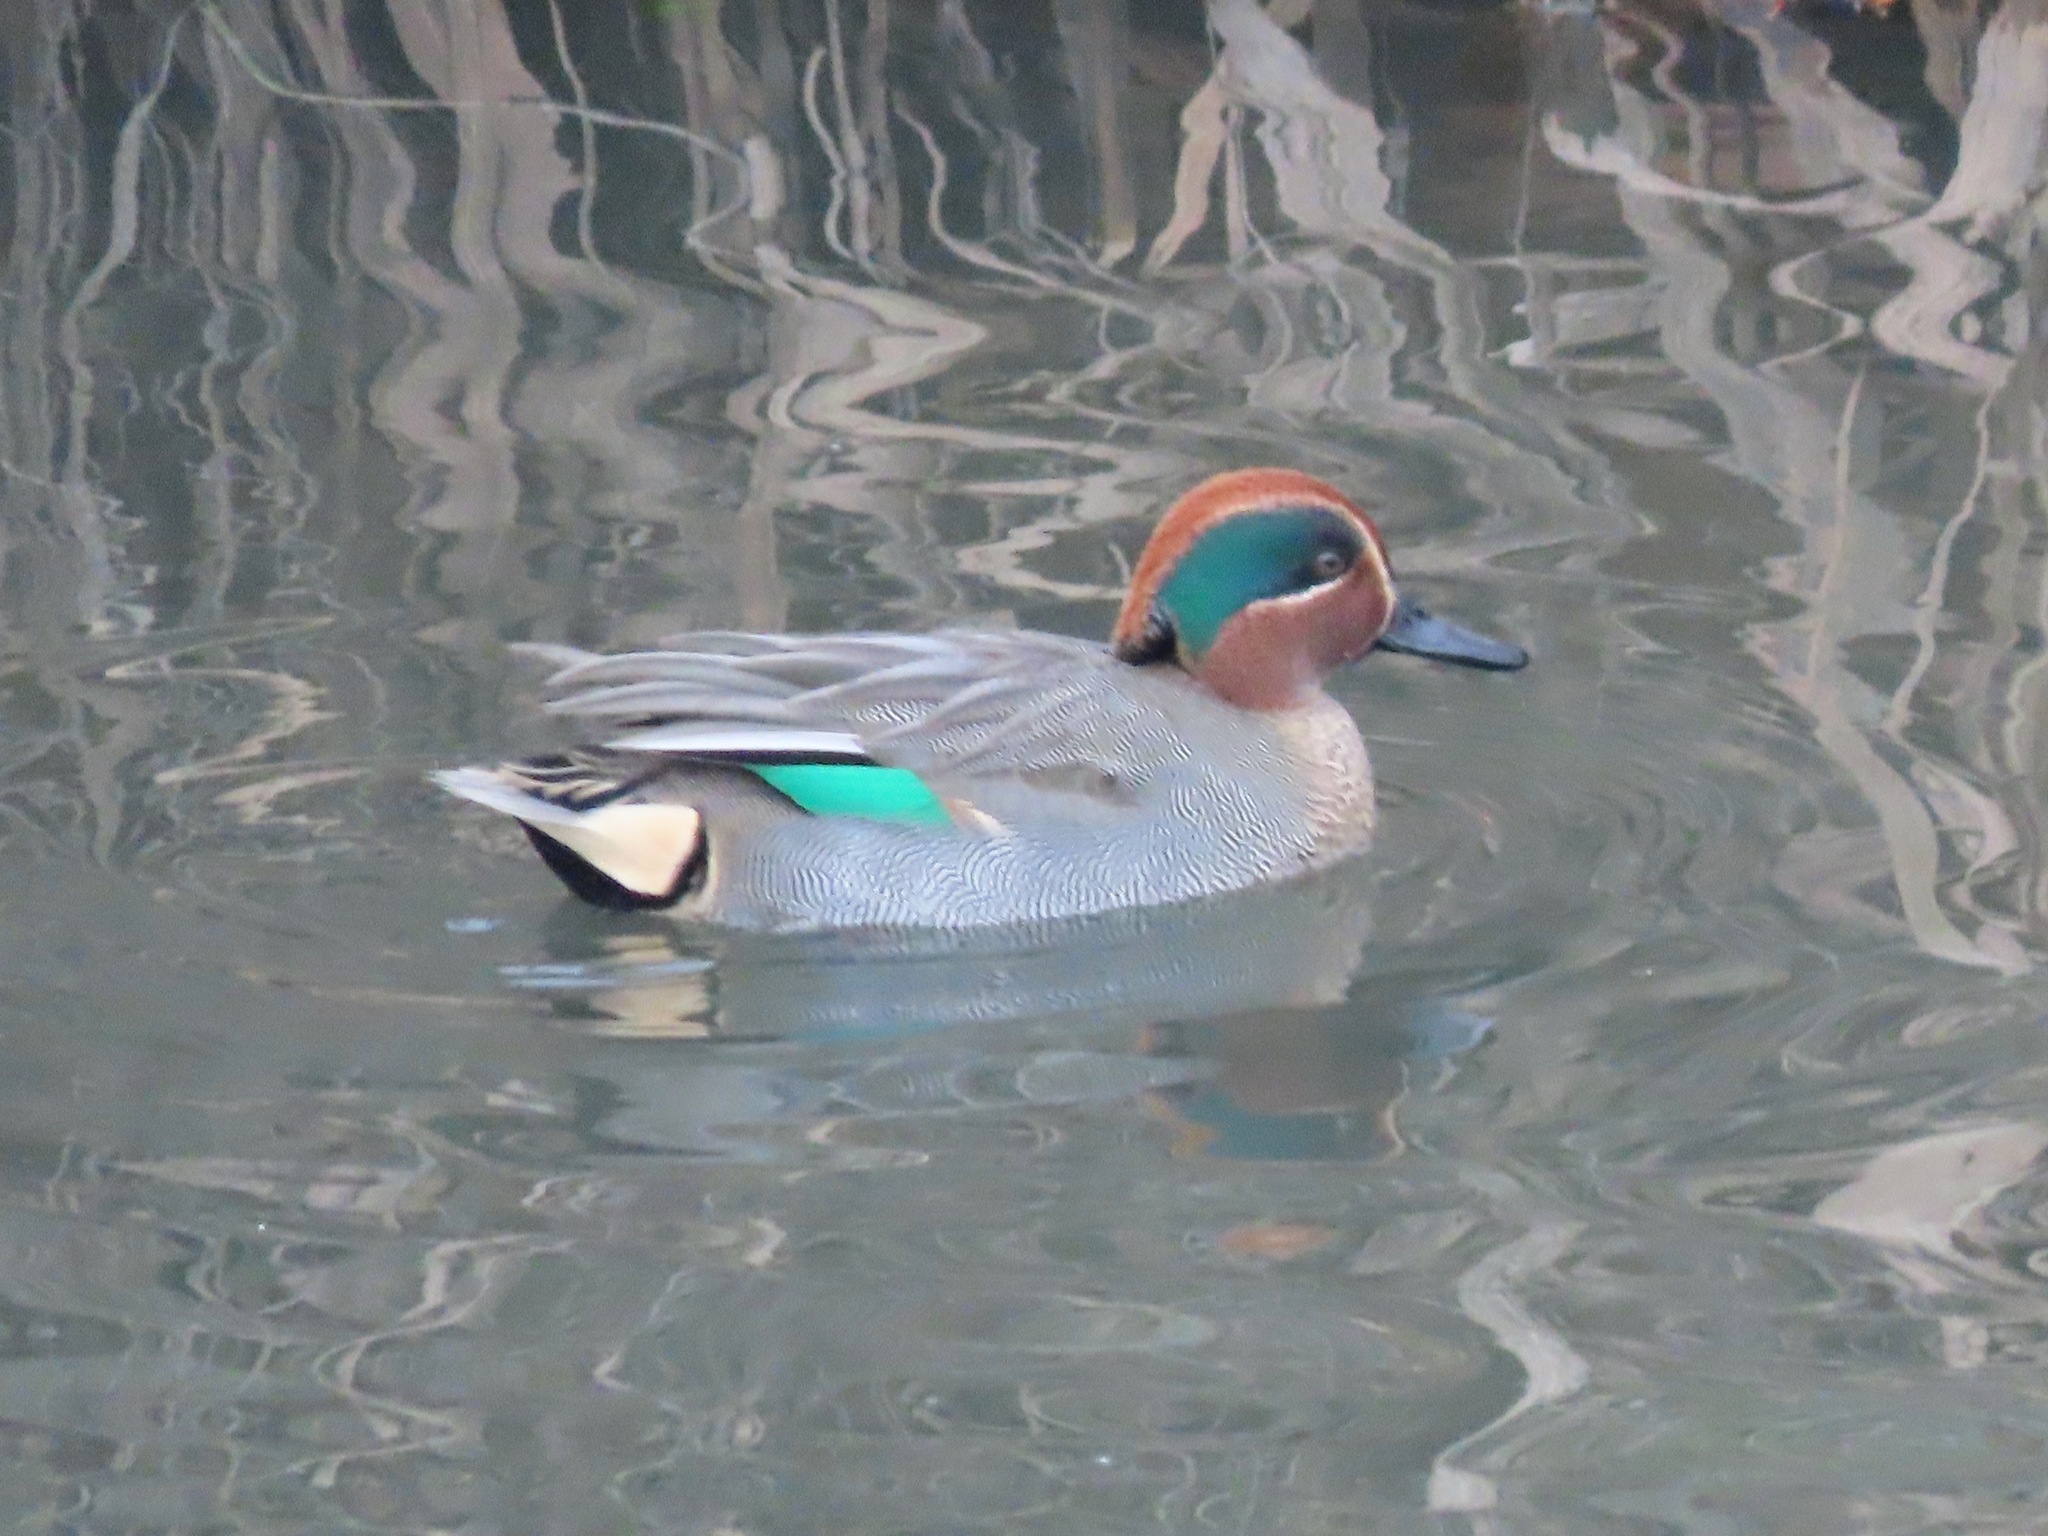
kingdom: Animalia
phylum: Chordata
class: Aves
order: Anseriformes
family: Anatidae
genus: Anas
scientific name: Anas crecca
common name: Eurasian teal
